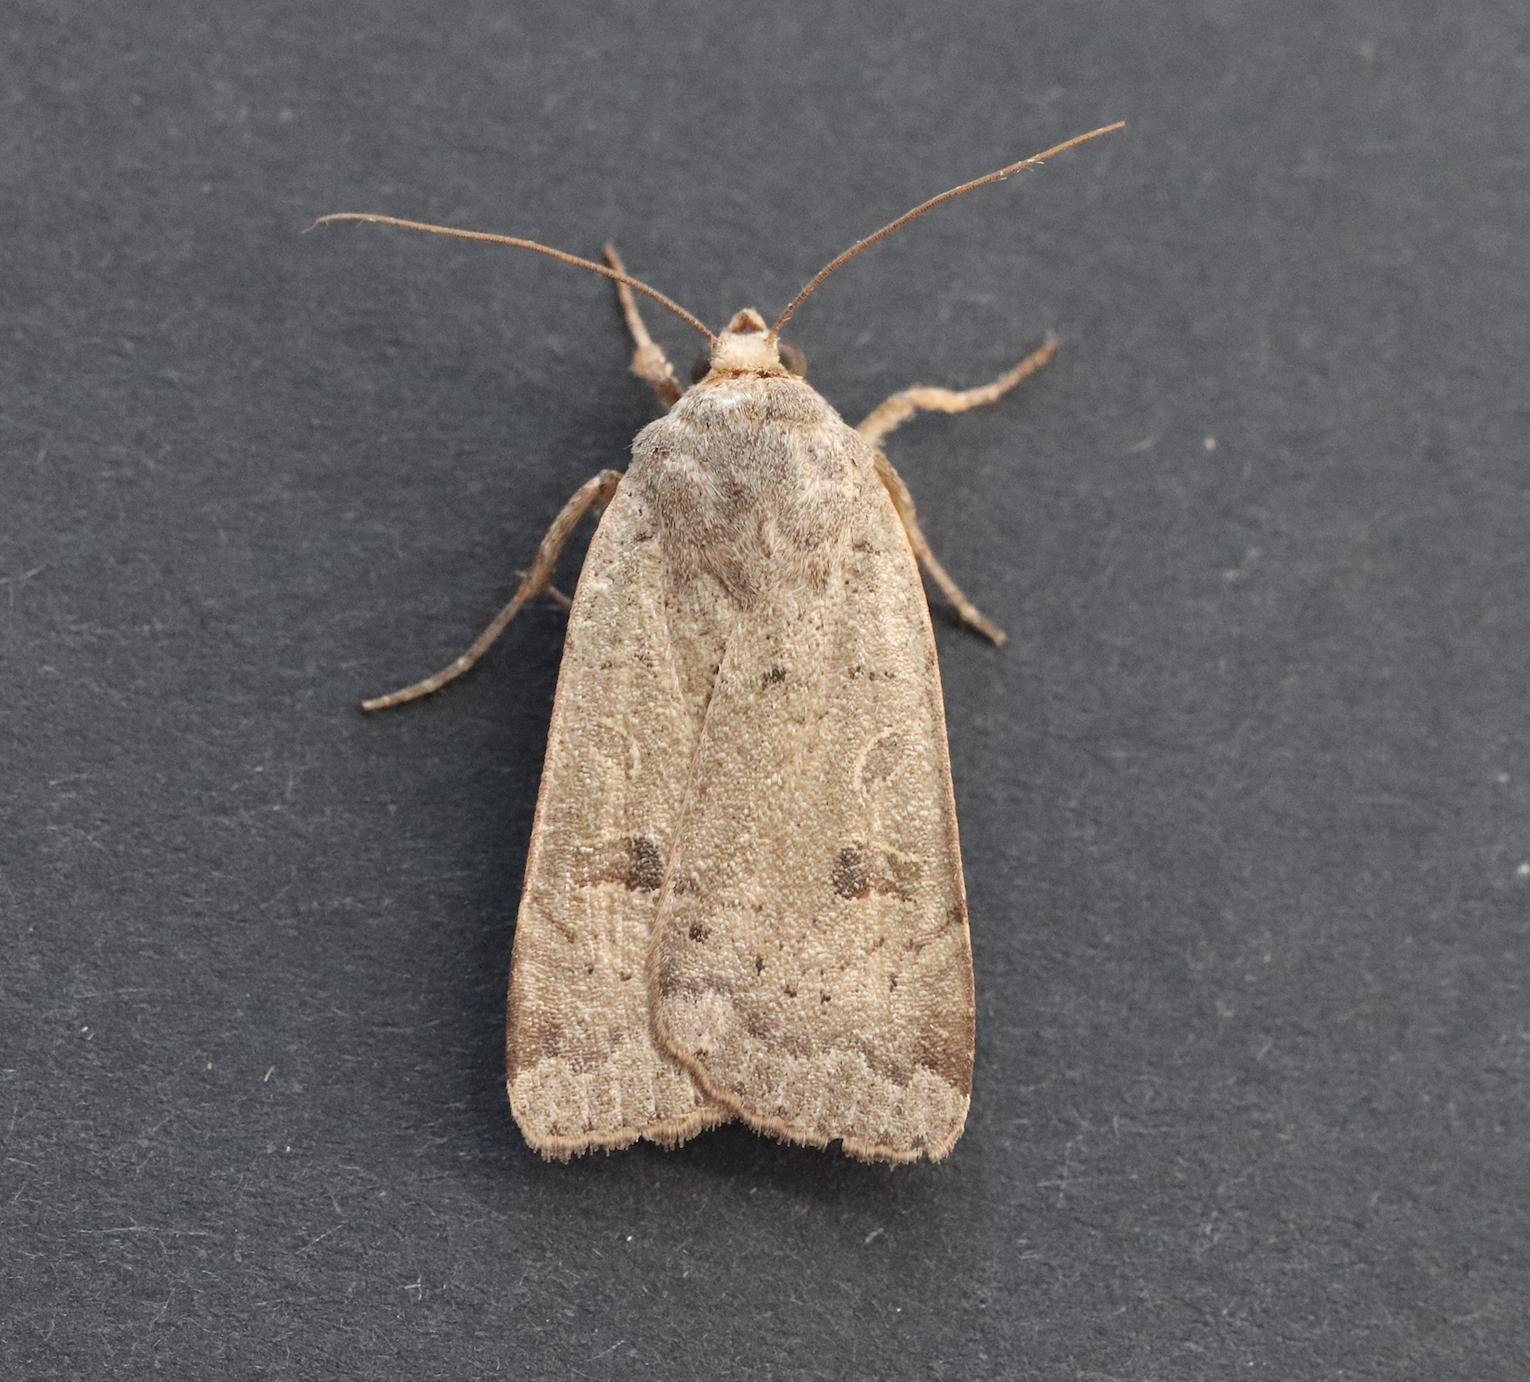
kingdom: Animalia
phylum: Arthropoda
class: Insecta
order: Lepidoptera
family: Noctuidae
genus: Noctua
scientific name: Noctua comes
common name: Lesser yellow underwing
